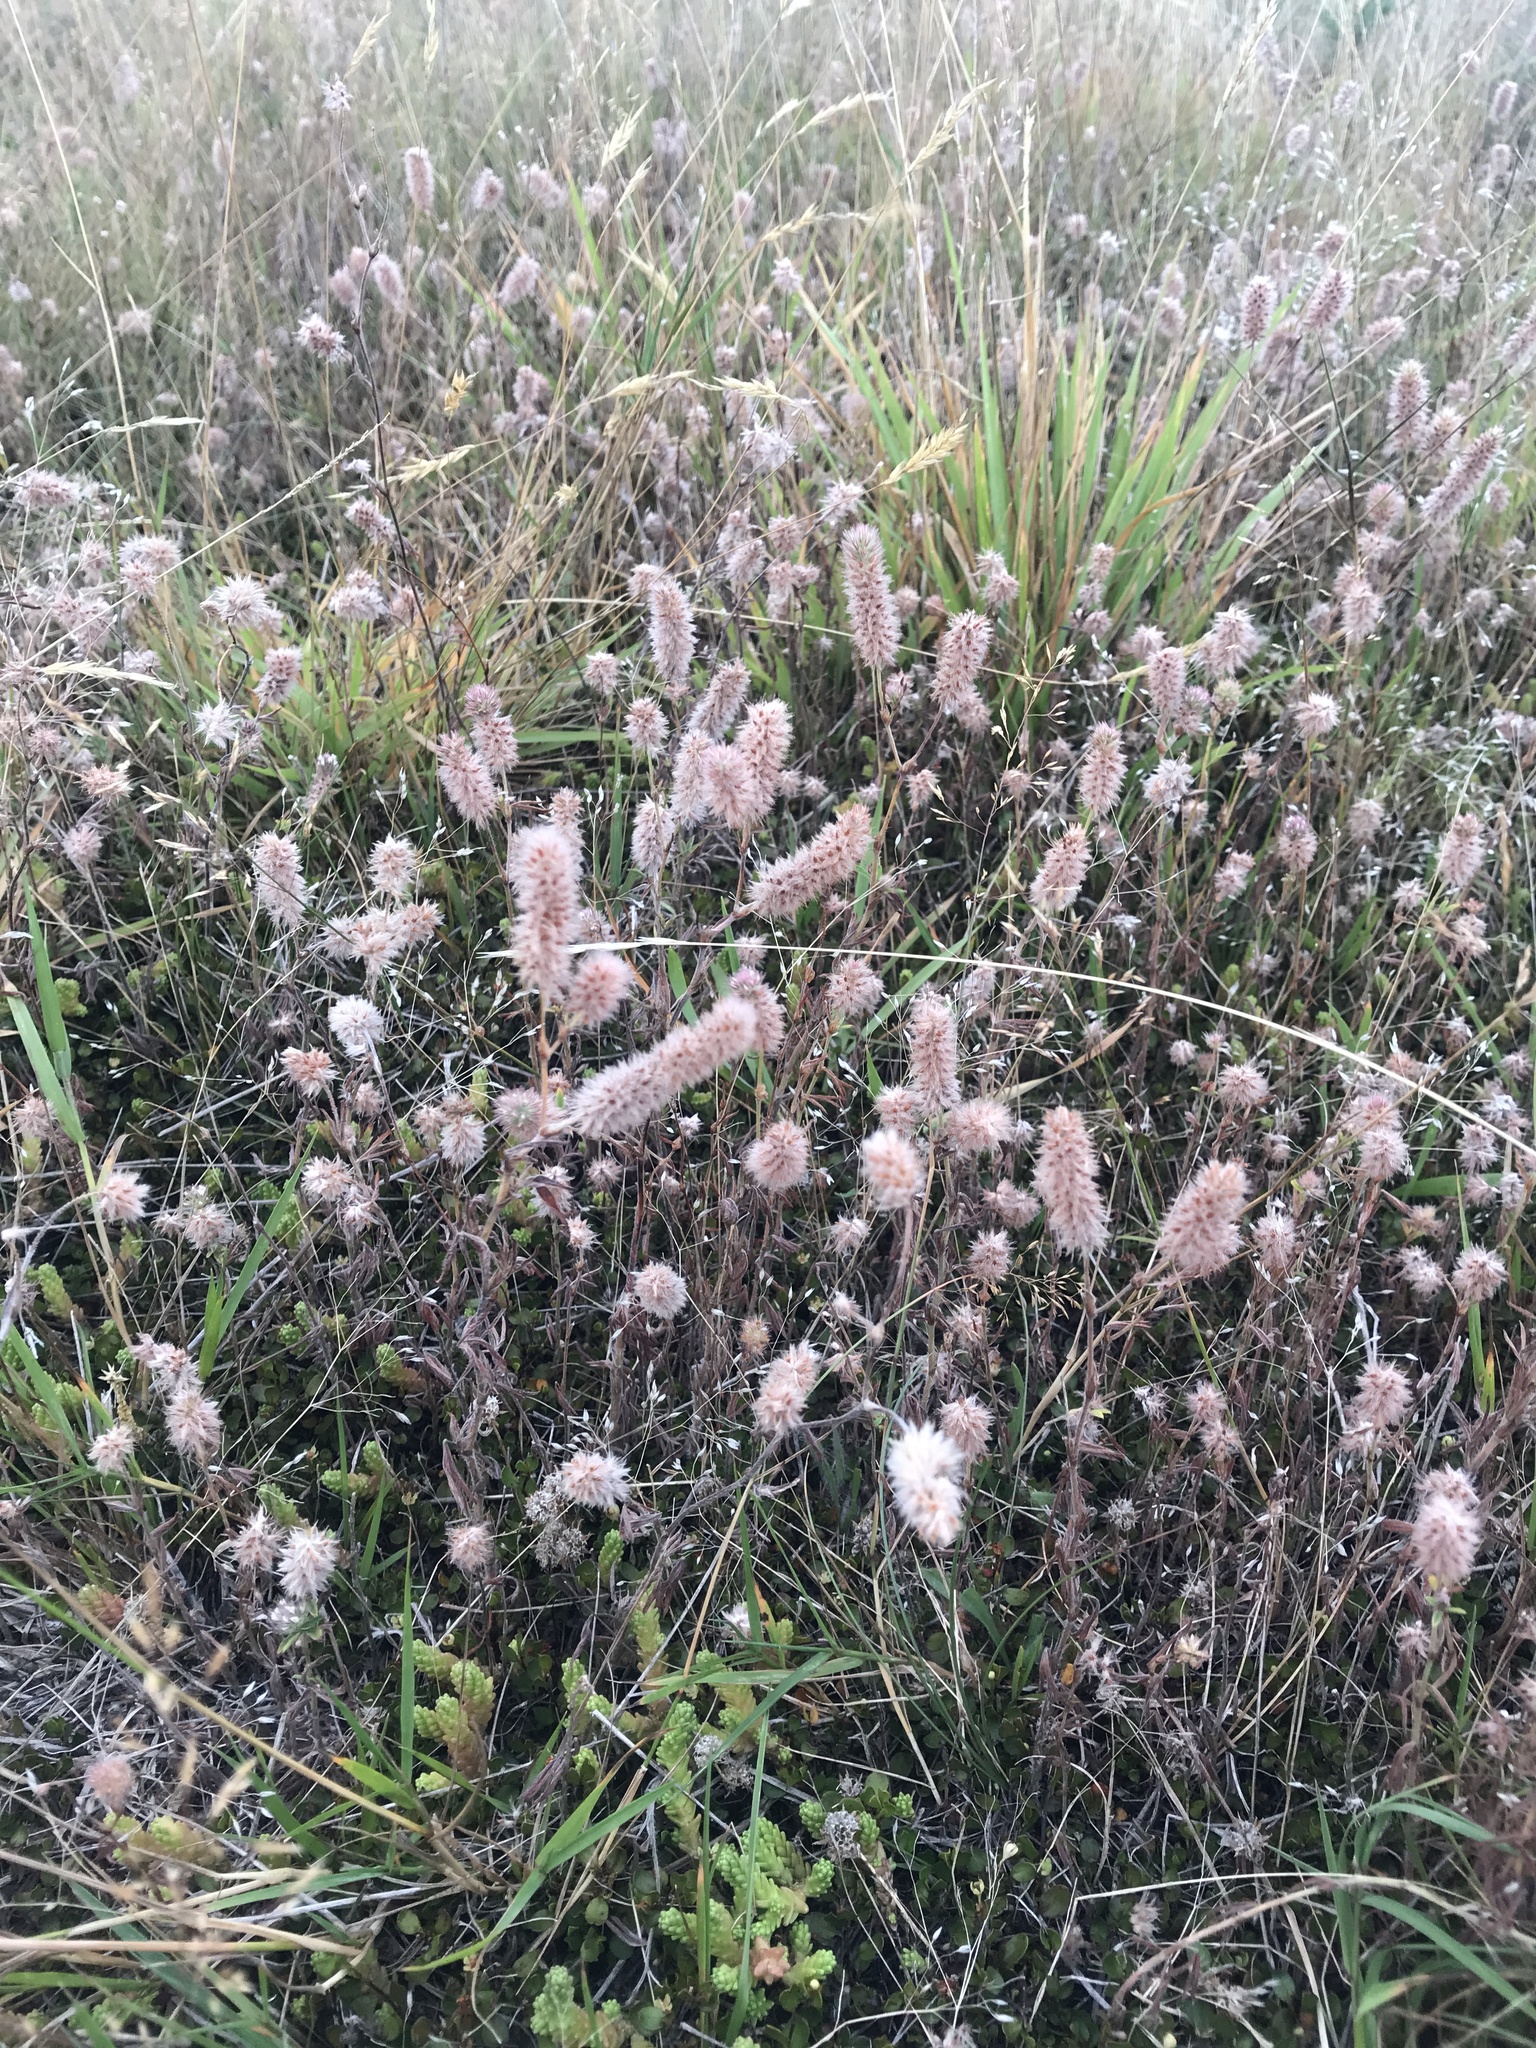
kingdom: Plantae
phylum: Tracheophyta
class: Magnoliopsida
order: Fabales
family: Fabaceae
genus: Trifolium
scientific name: Trifolium arvense
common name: Hare's-foot clover
